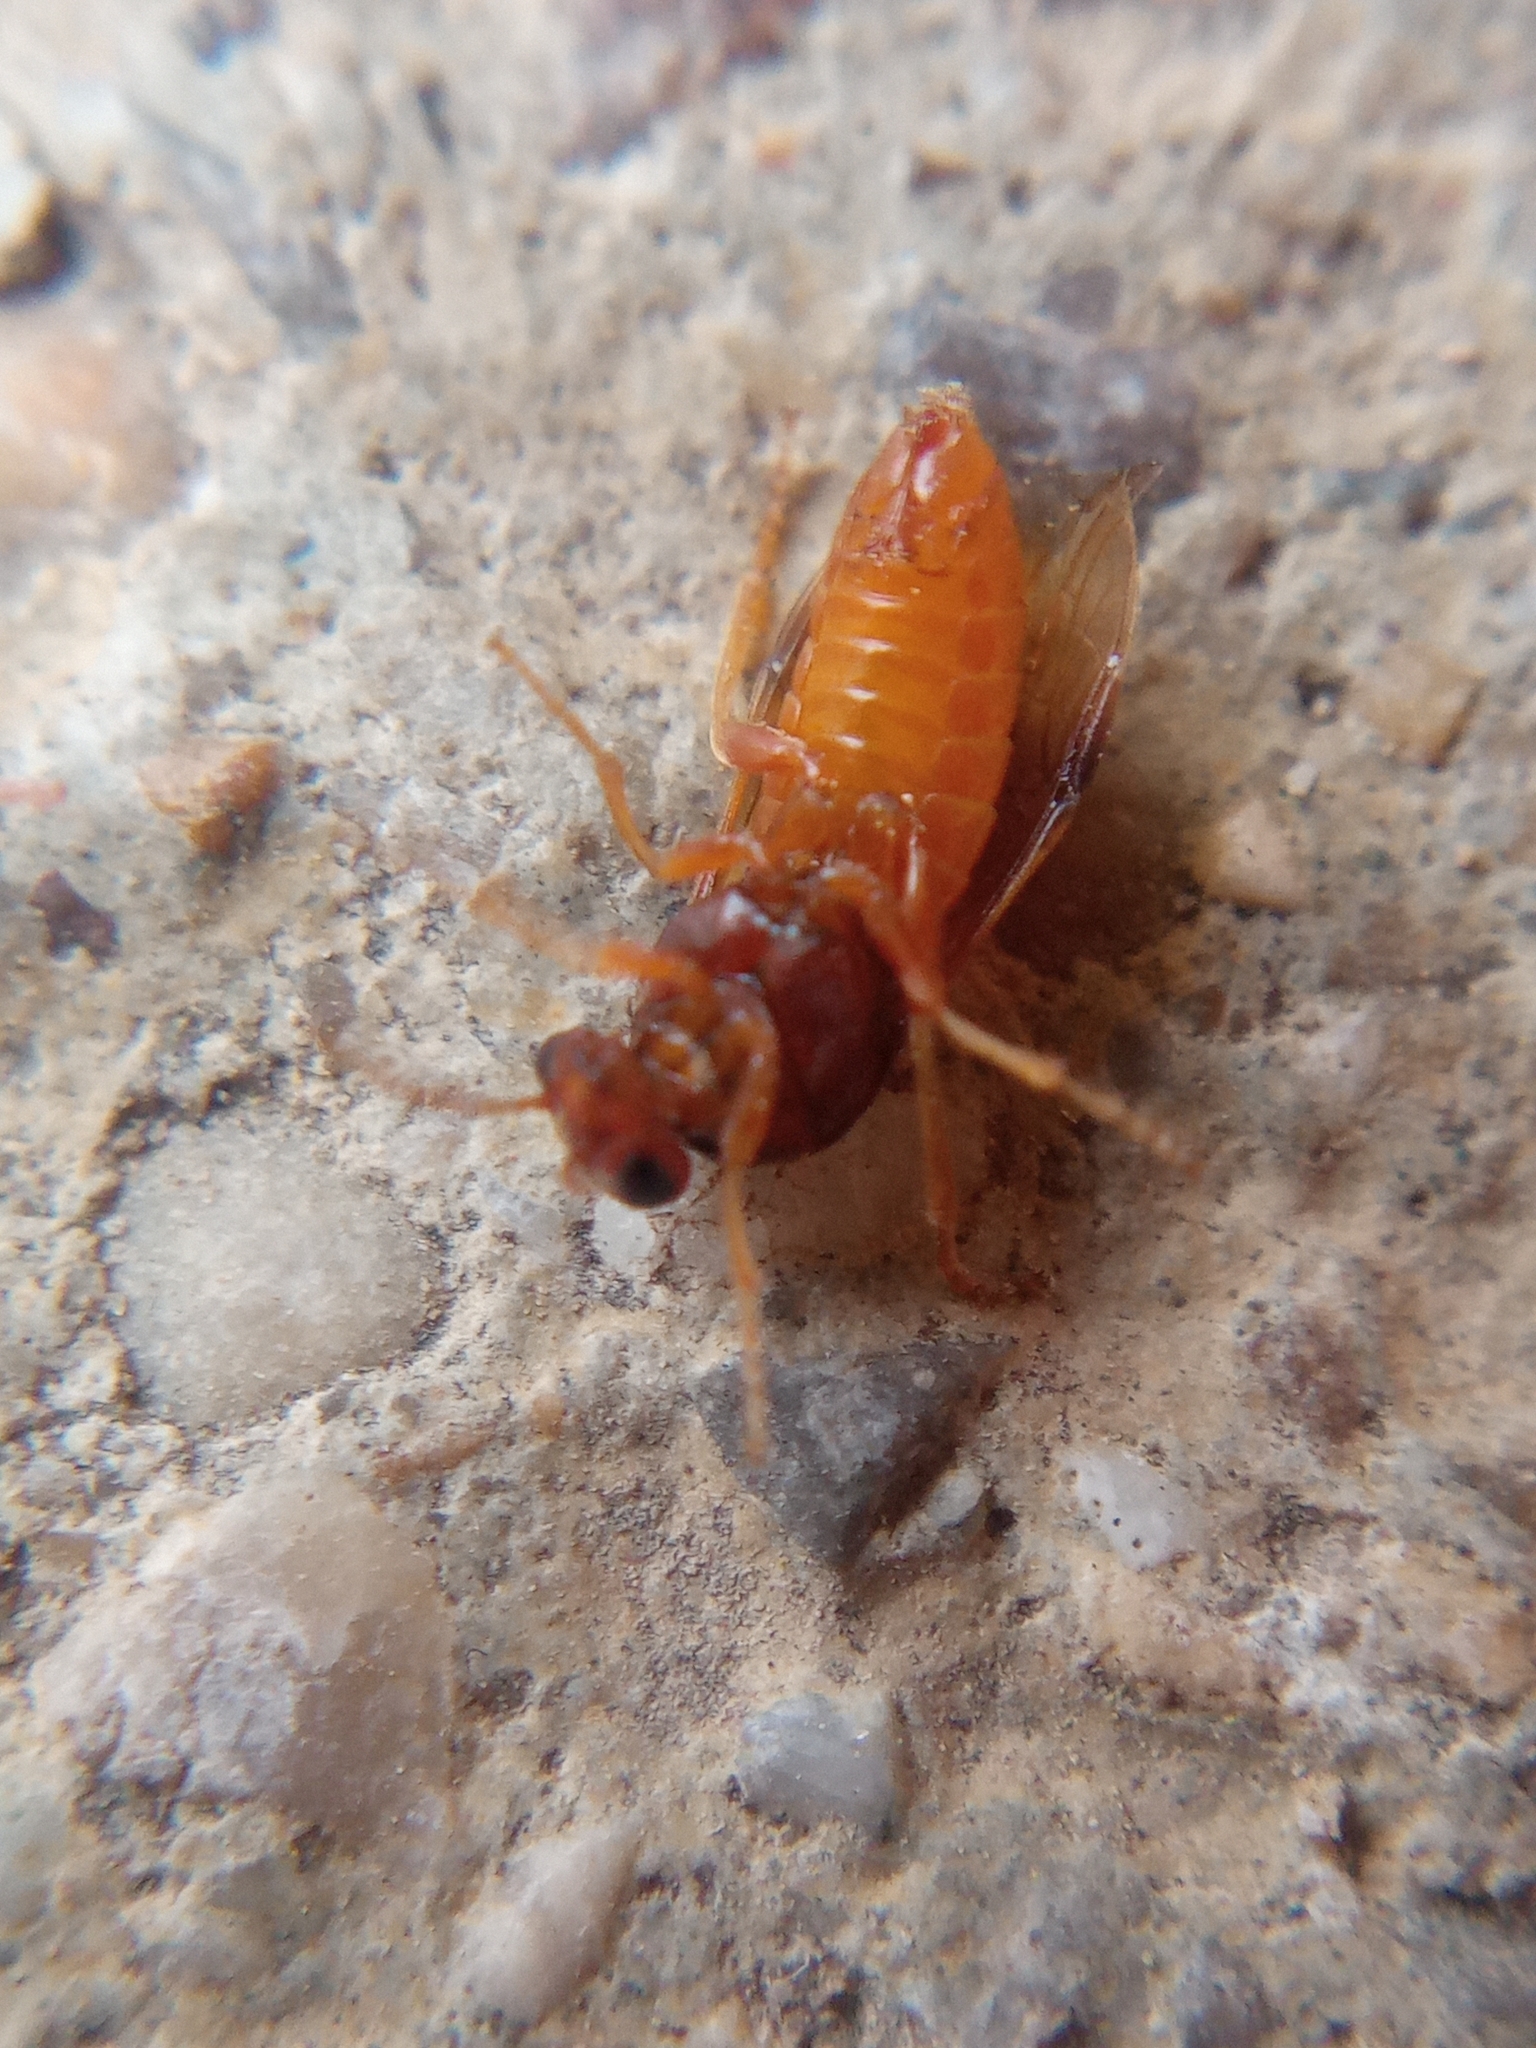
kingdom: Animalia
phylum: Arthropoda
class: Insecta
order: Hymenoptera
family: Tenthredinidae
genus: Hoplocampa
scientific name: Hoplocampa flava
